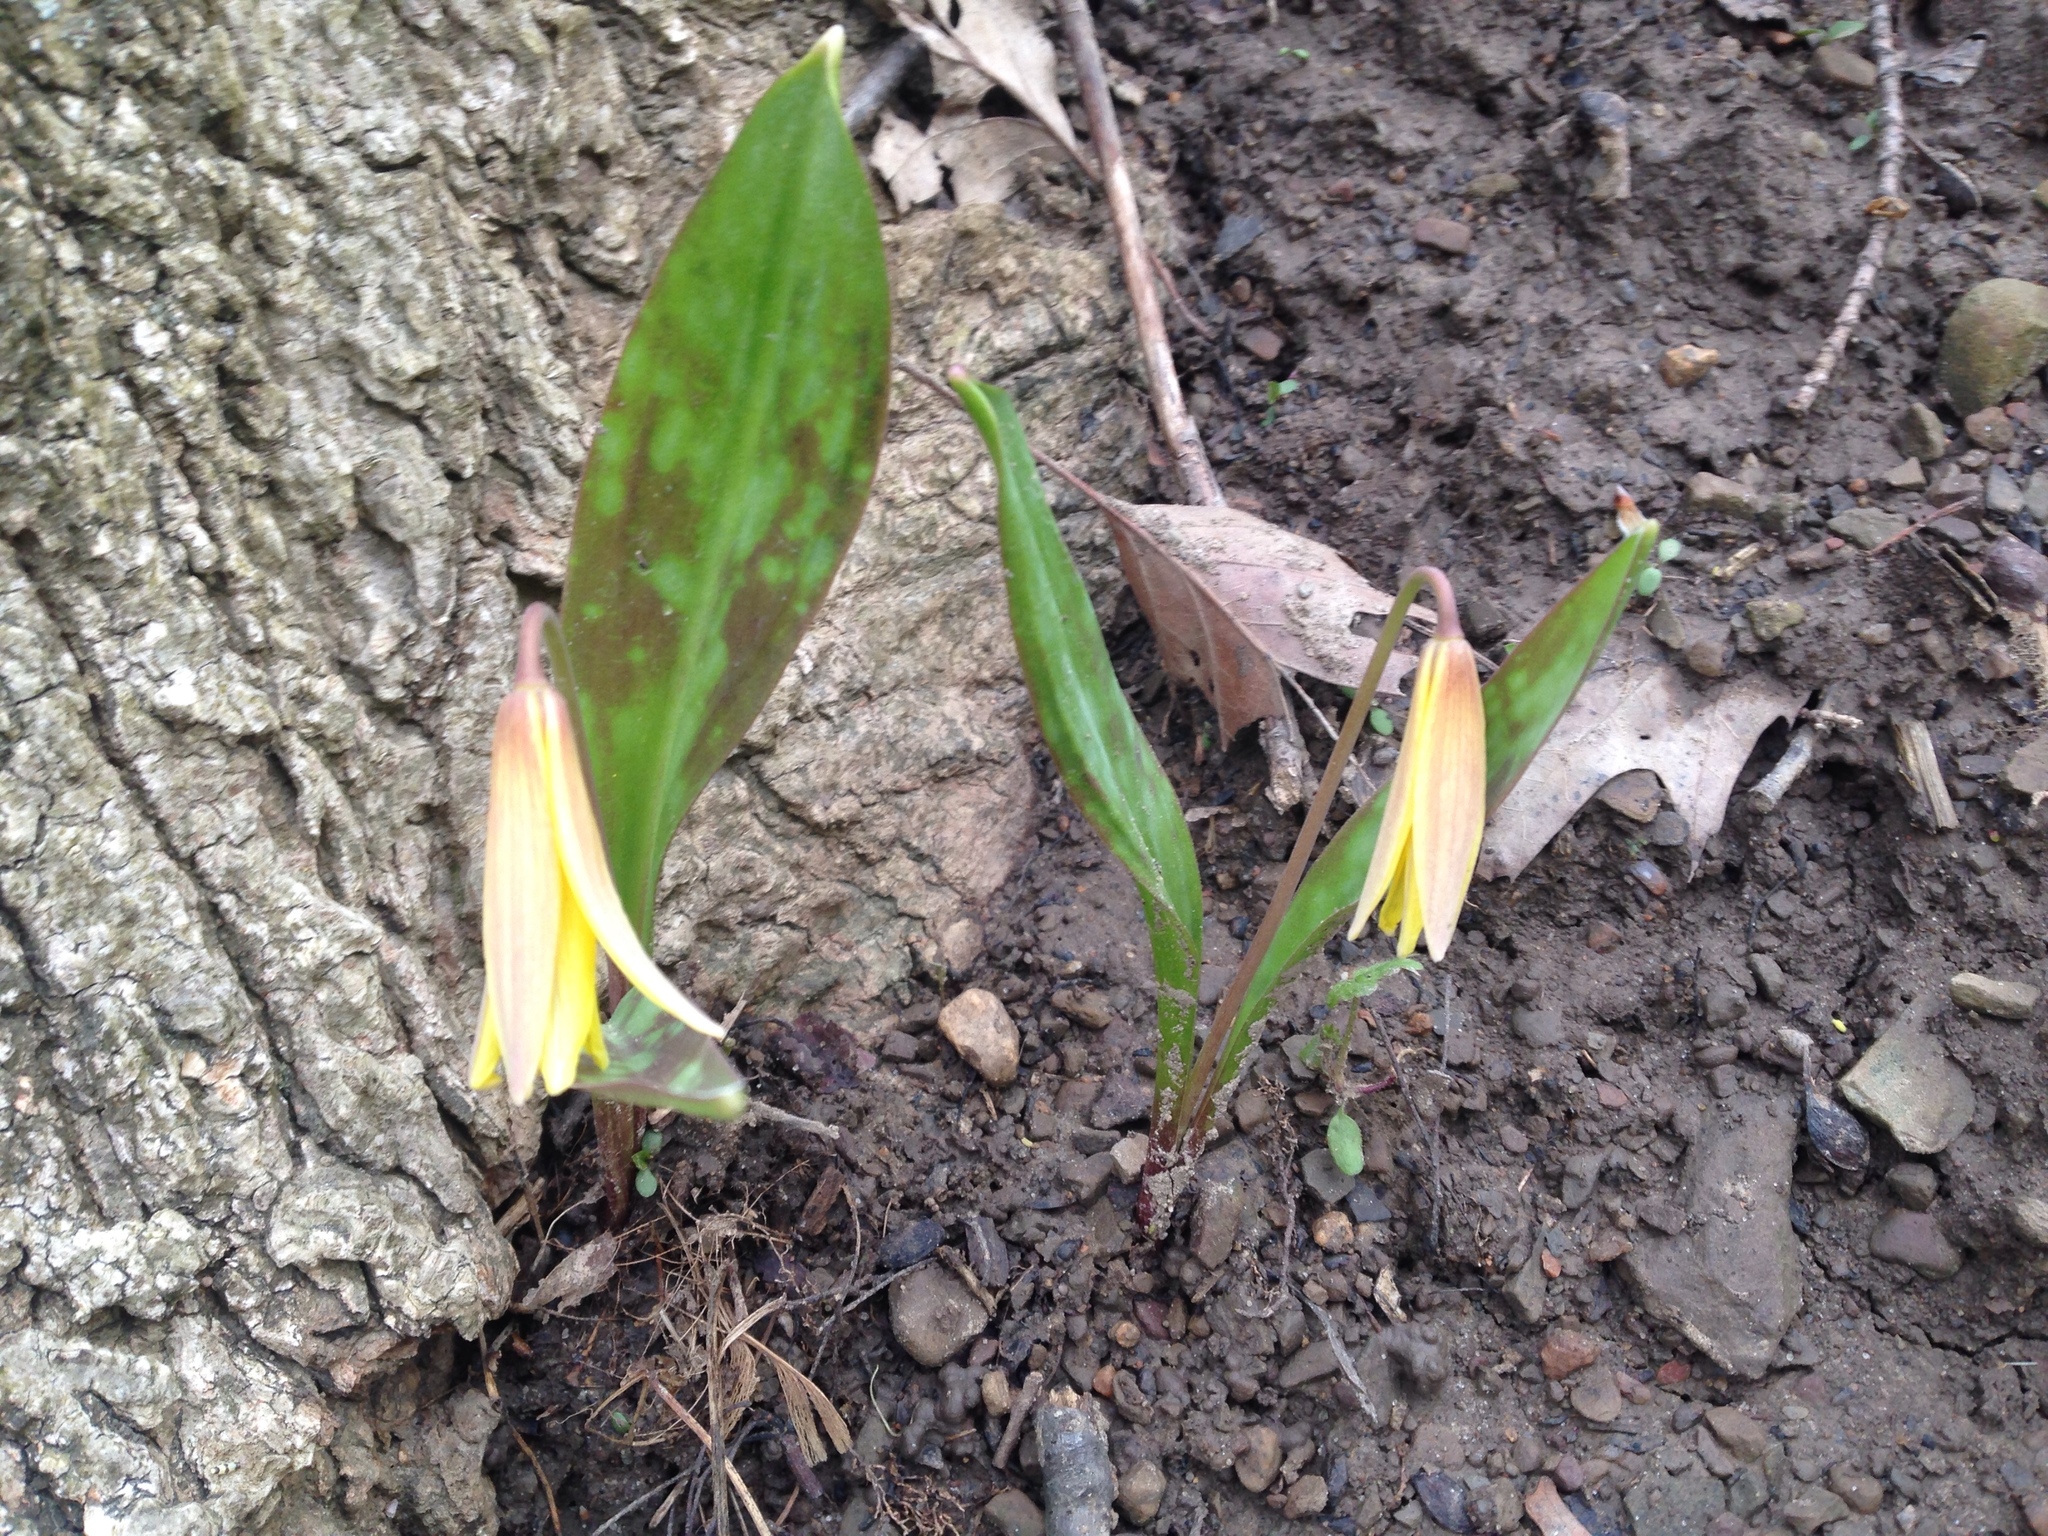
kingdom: Plantae
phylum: Tracheophyta
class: Liliopsida
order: Liliales
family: Liliaceae
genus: Erythronium
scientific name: Erythronium americanum
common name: Yellow adder's-tongue
